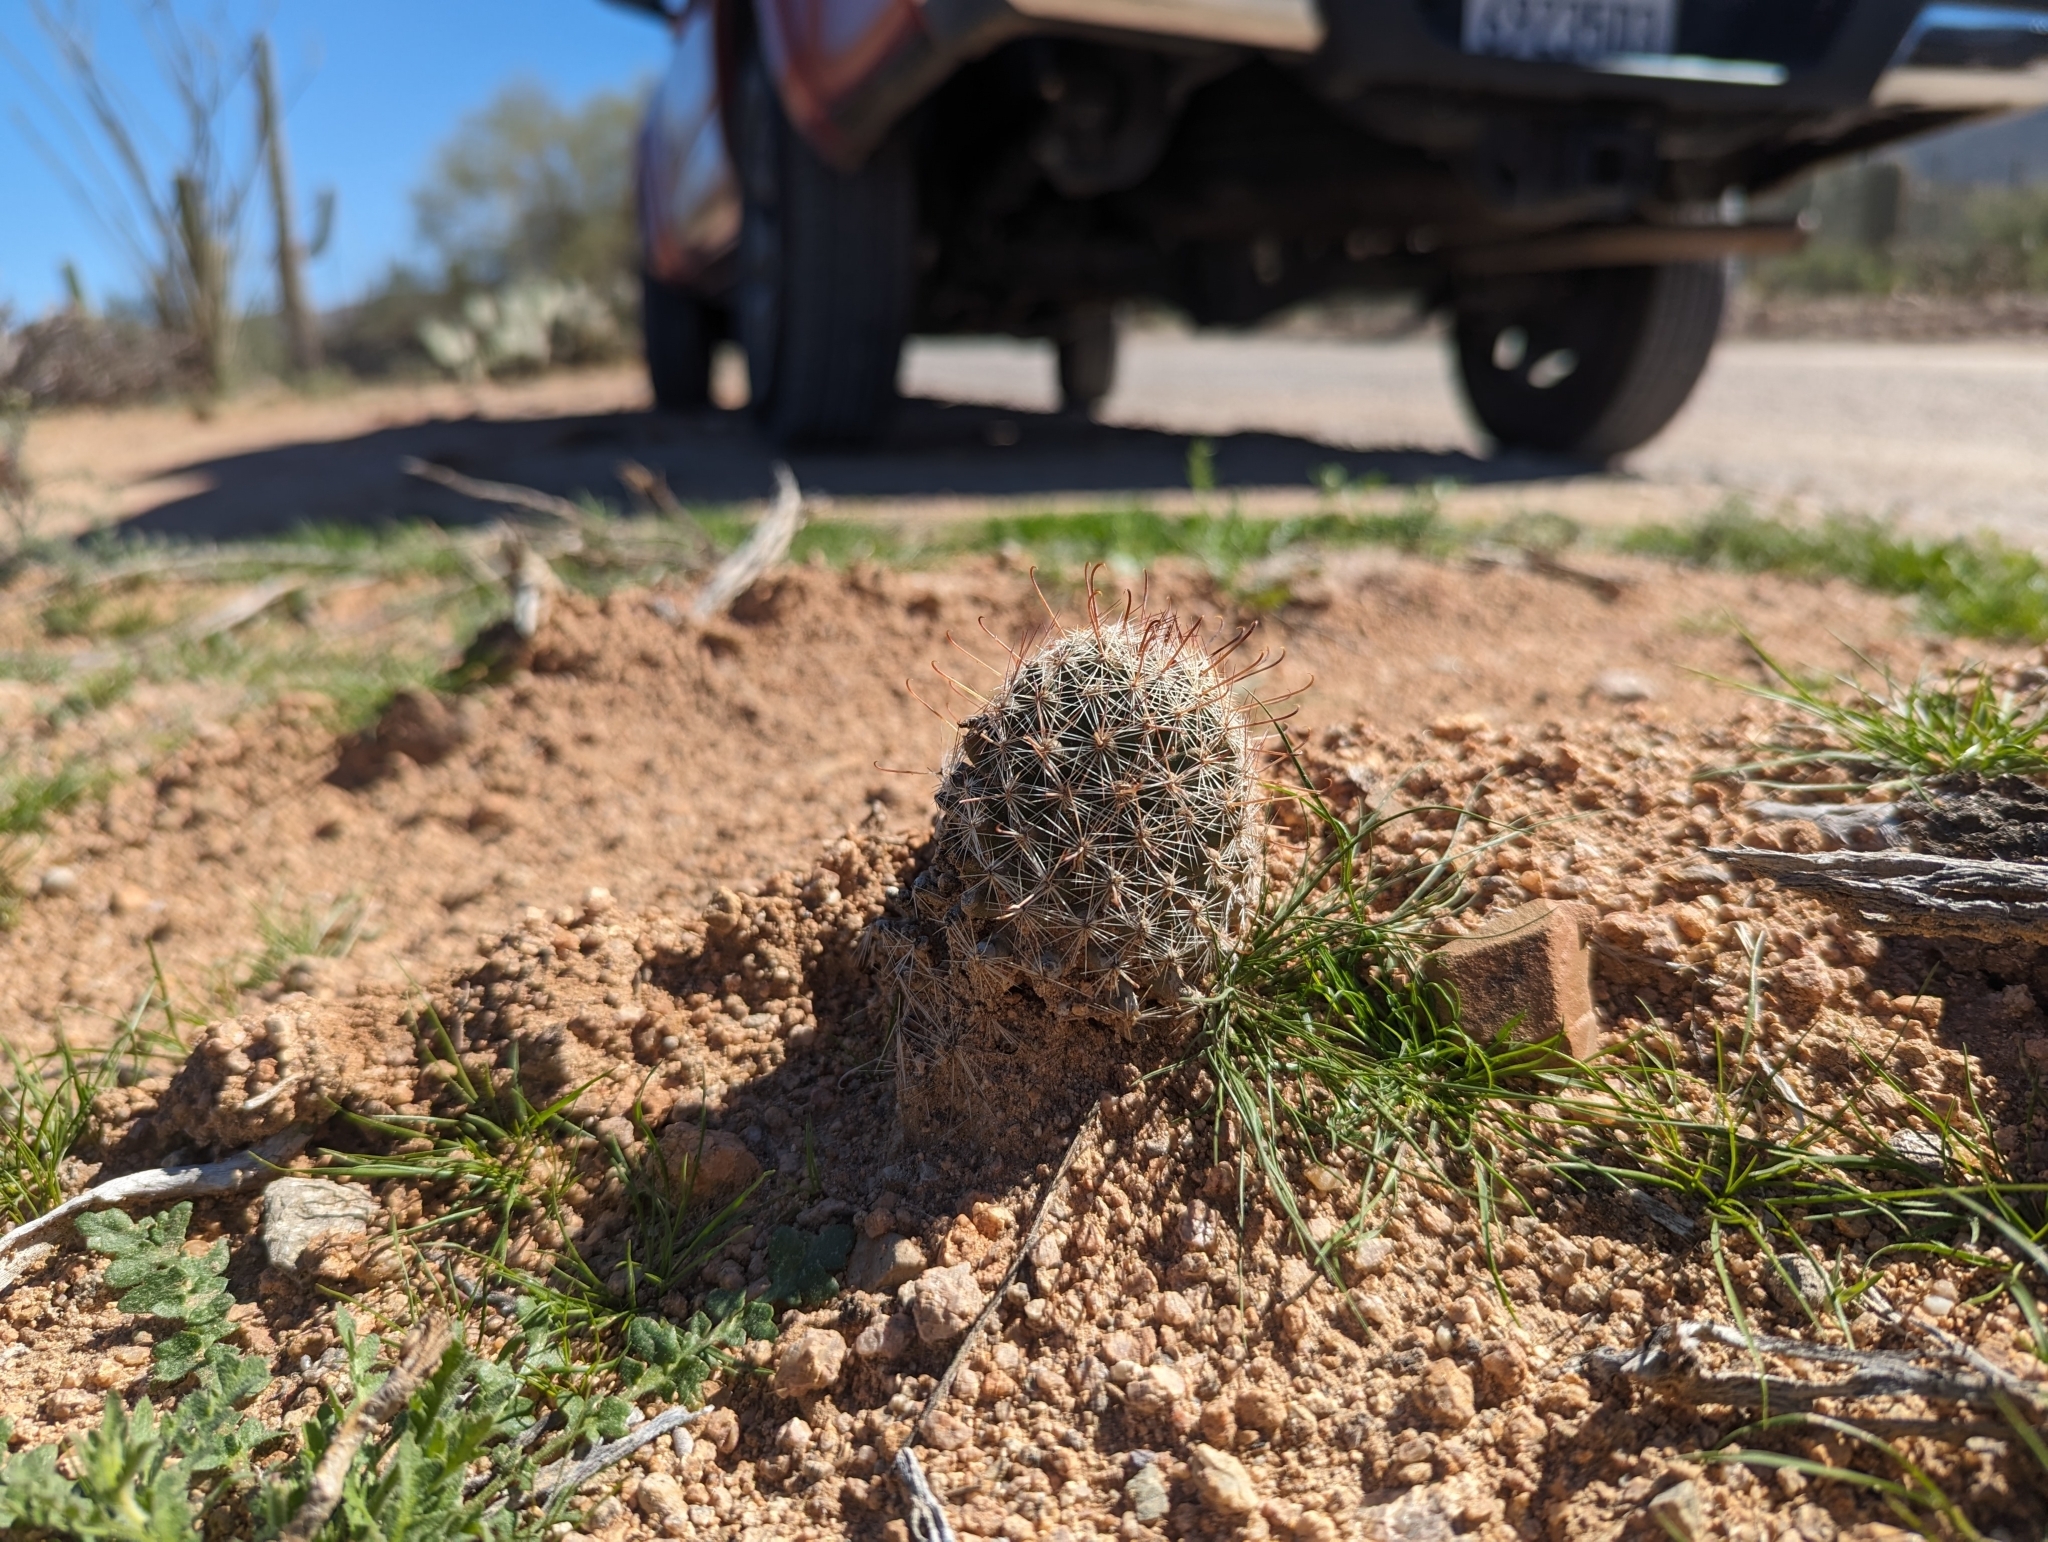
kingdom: Plantae
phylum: Tracheophyta
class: Magnoliopsida
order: Caryophyllales
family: Cactaceae
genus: Cochemiea
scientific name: Cochemiea grahamii
